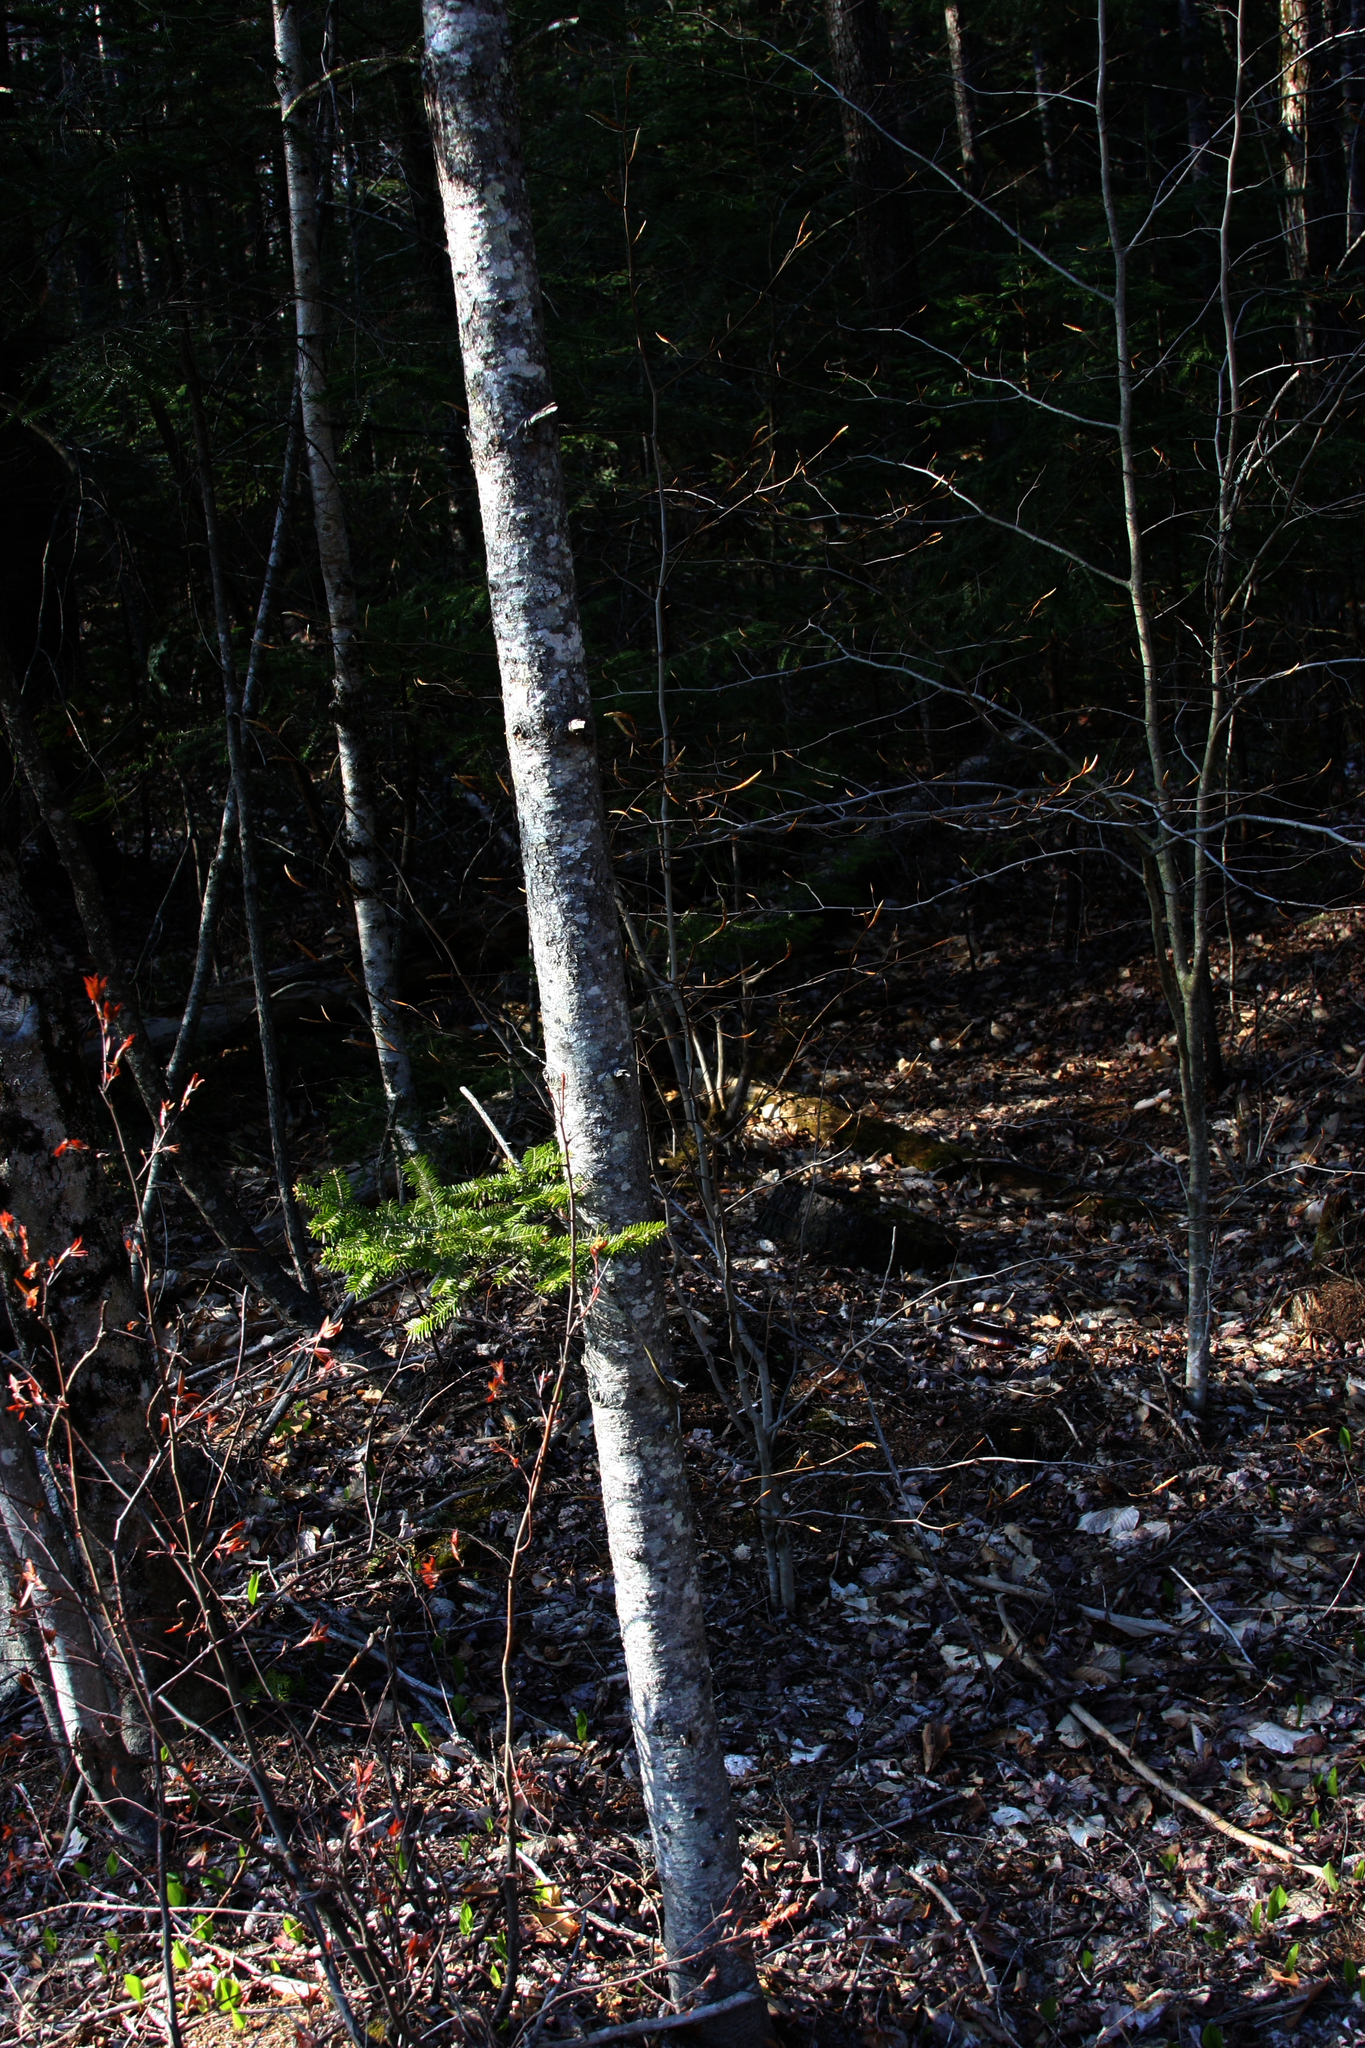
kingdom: Plantae
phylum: Tracheophyta
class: Pinopsida
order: Pinales
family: Pinaceae
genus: Abies
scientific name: Abies balsamea
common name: Balsam fir
